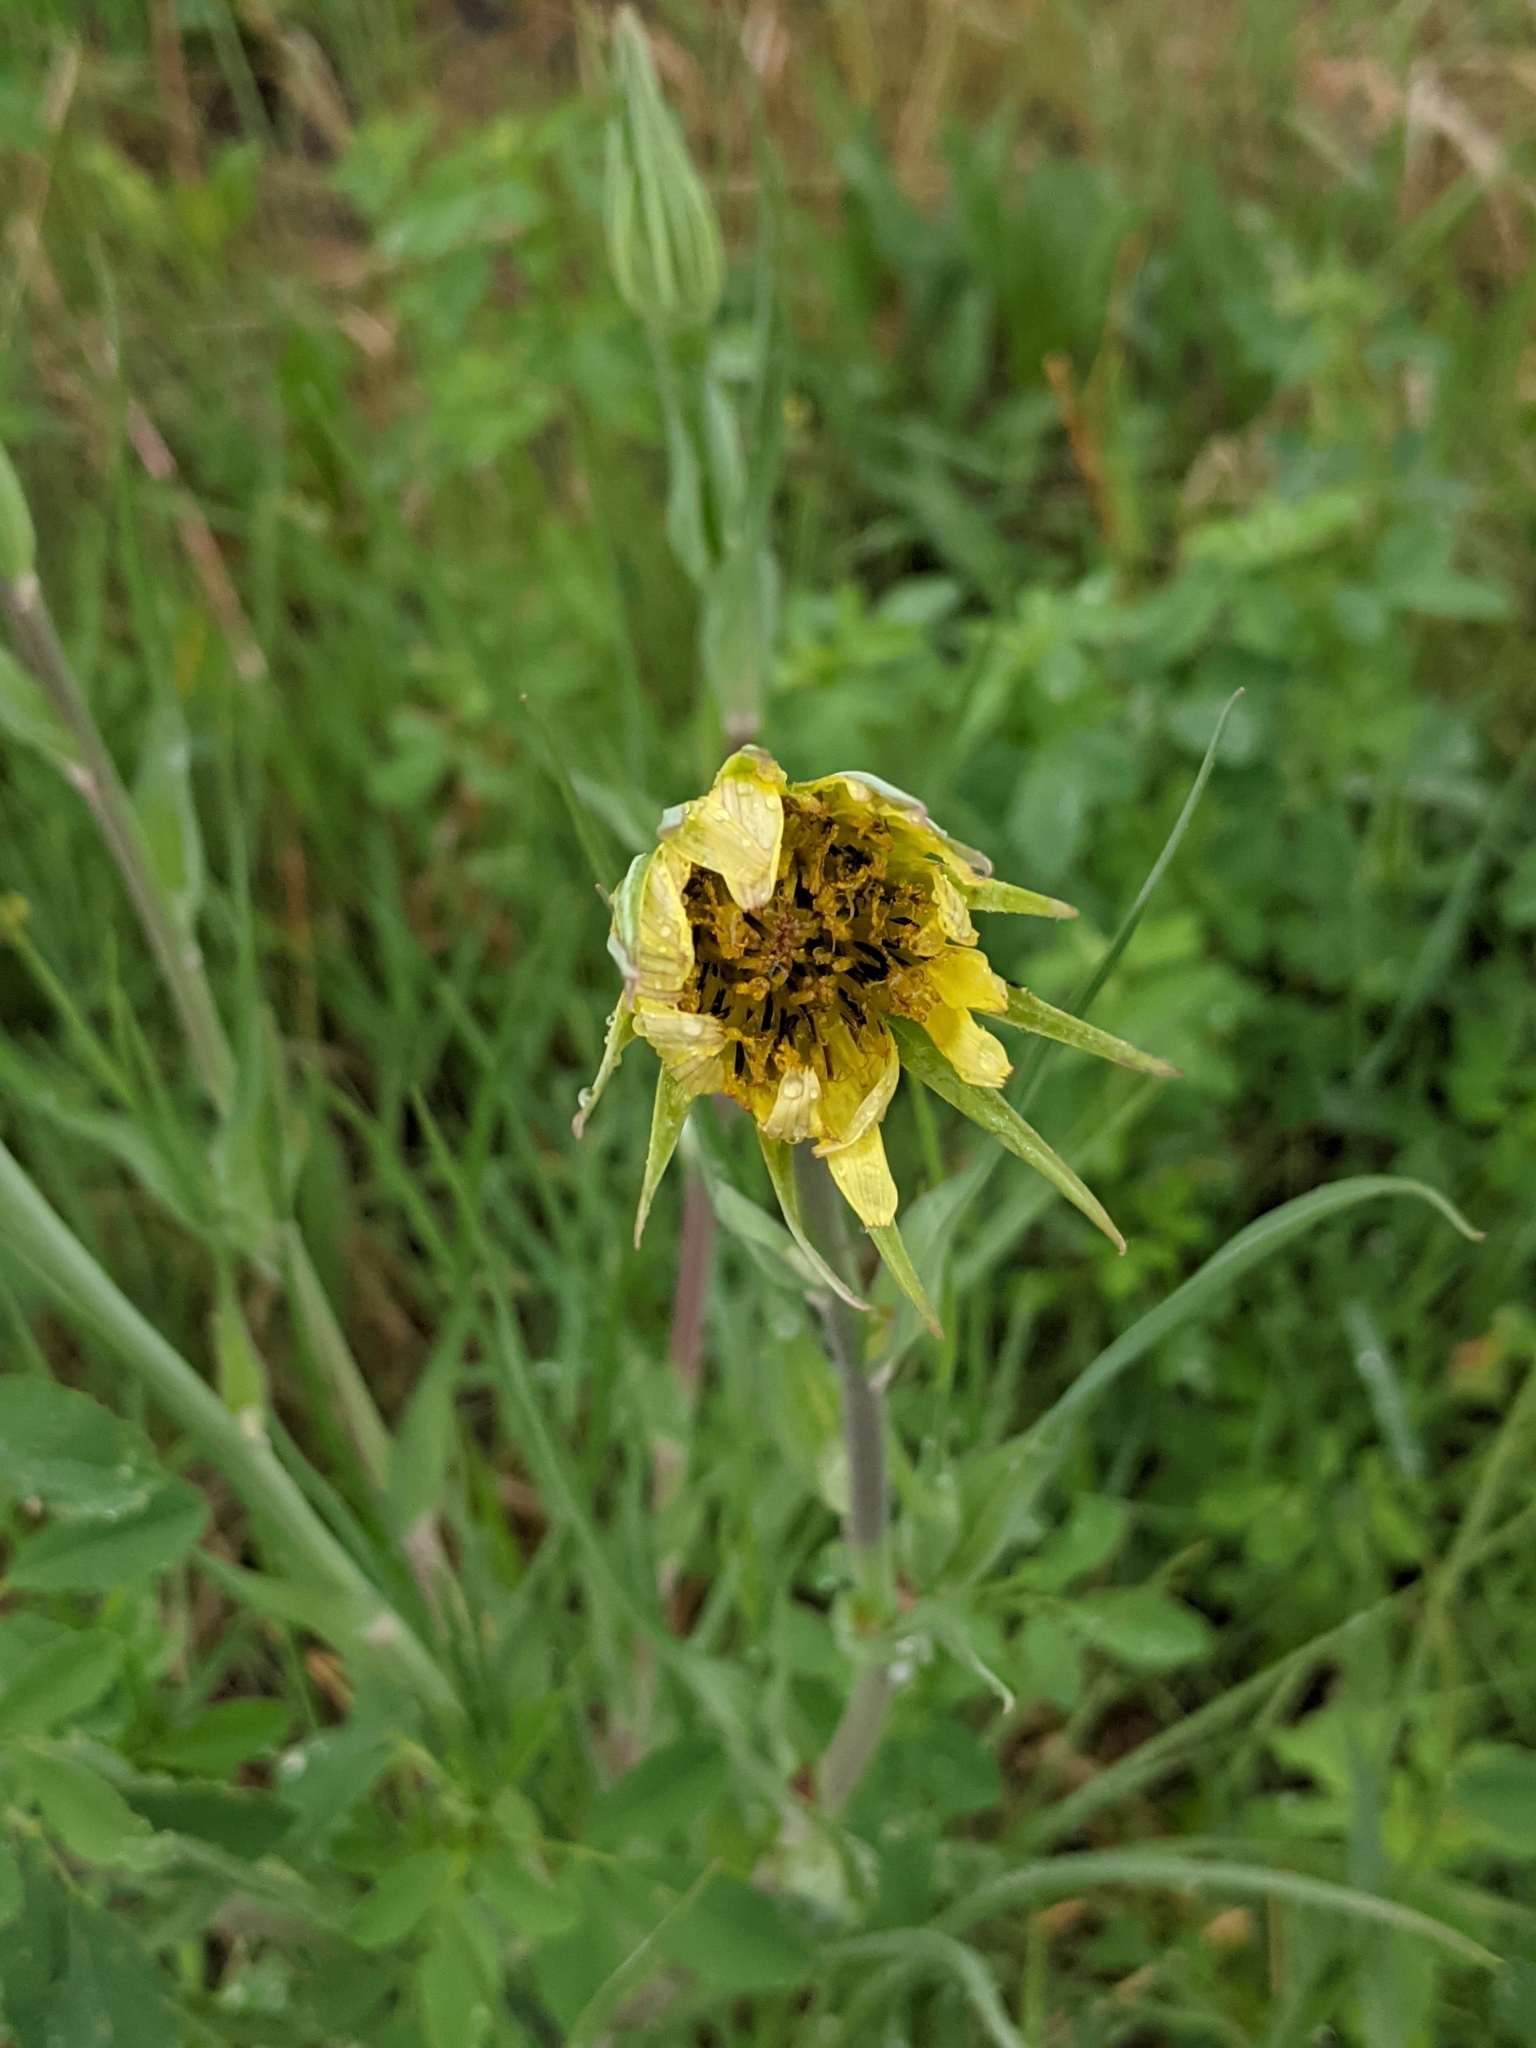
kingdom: Plantae
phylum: Tracheophyta
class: Magnoliopsida
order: Asterales
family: Asteraceae
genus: Tragopogon
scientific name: Tragopogon dubius
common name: Yellow salsify
